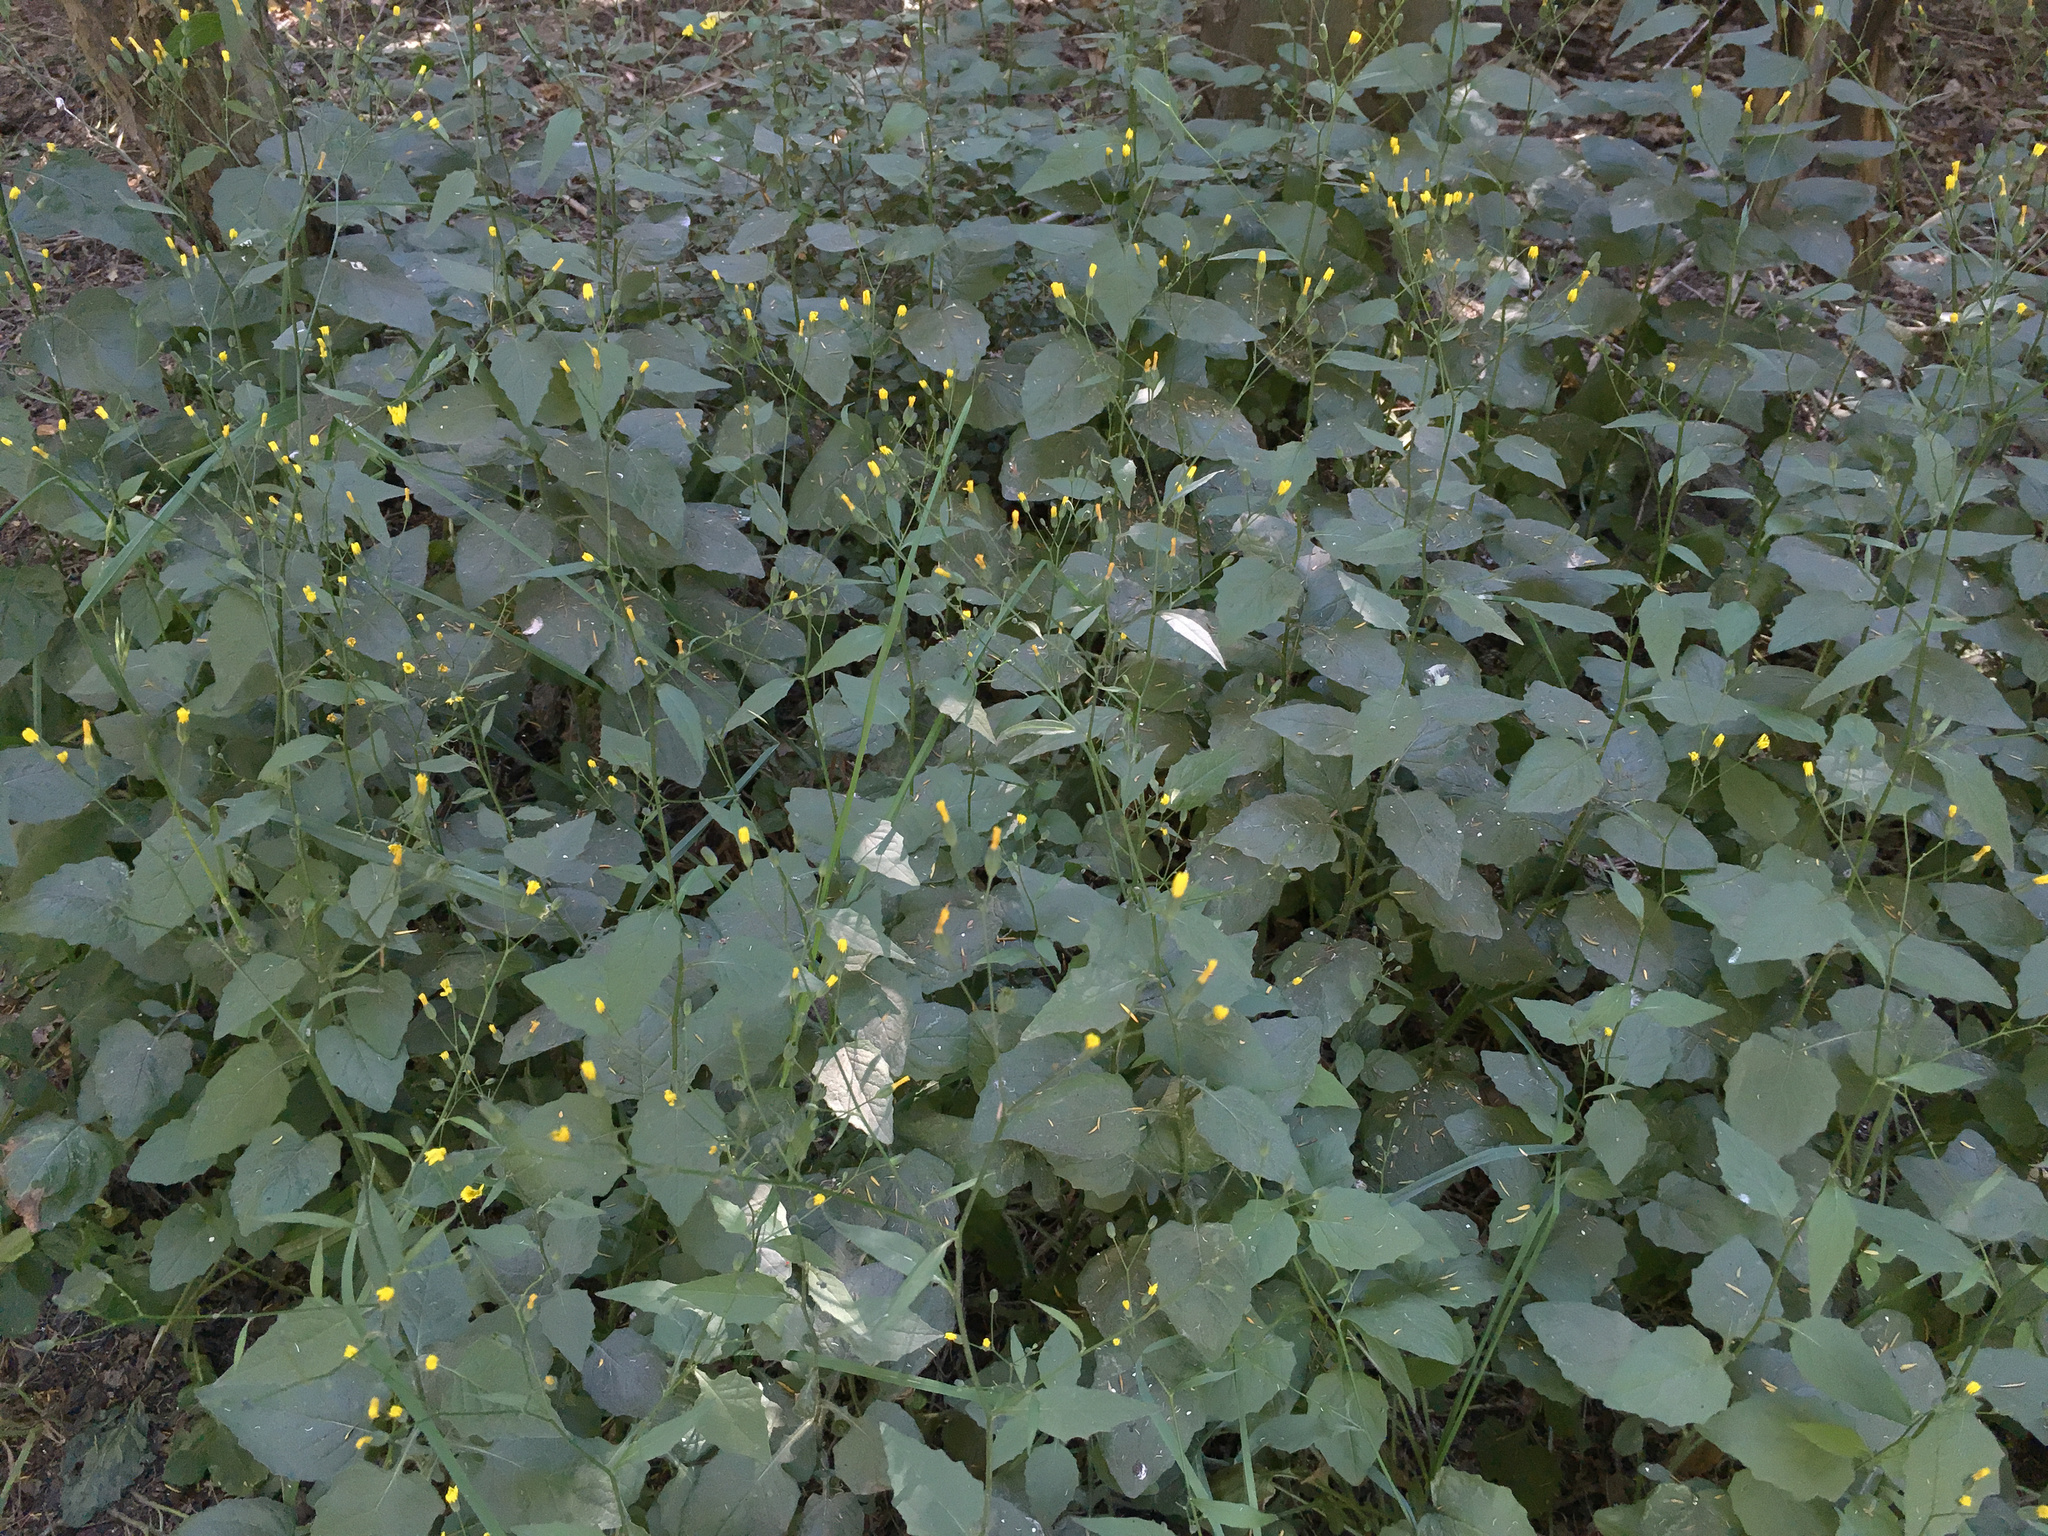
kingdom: Plantae
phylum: Tracheophyta
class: Magnoliopsida
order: Asterales
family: Asteraceae
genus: Lapsana
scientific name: Lapsana communis
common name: Nipplewort
